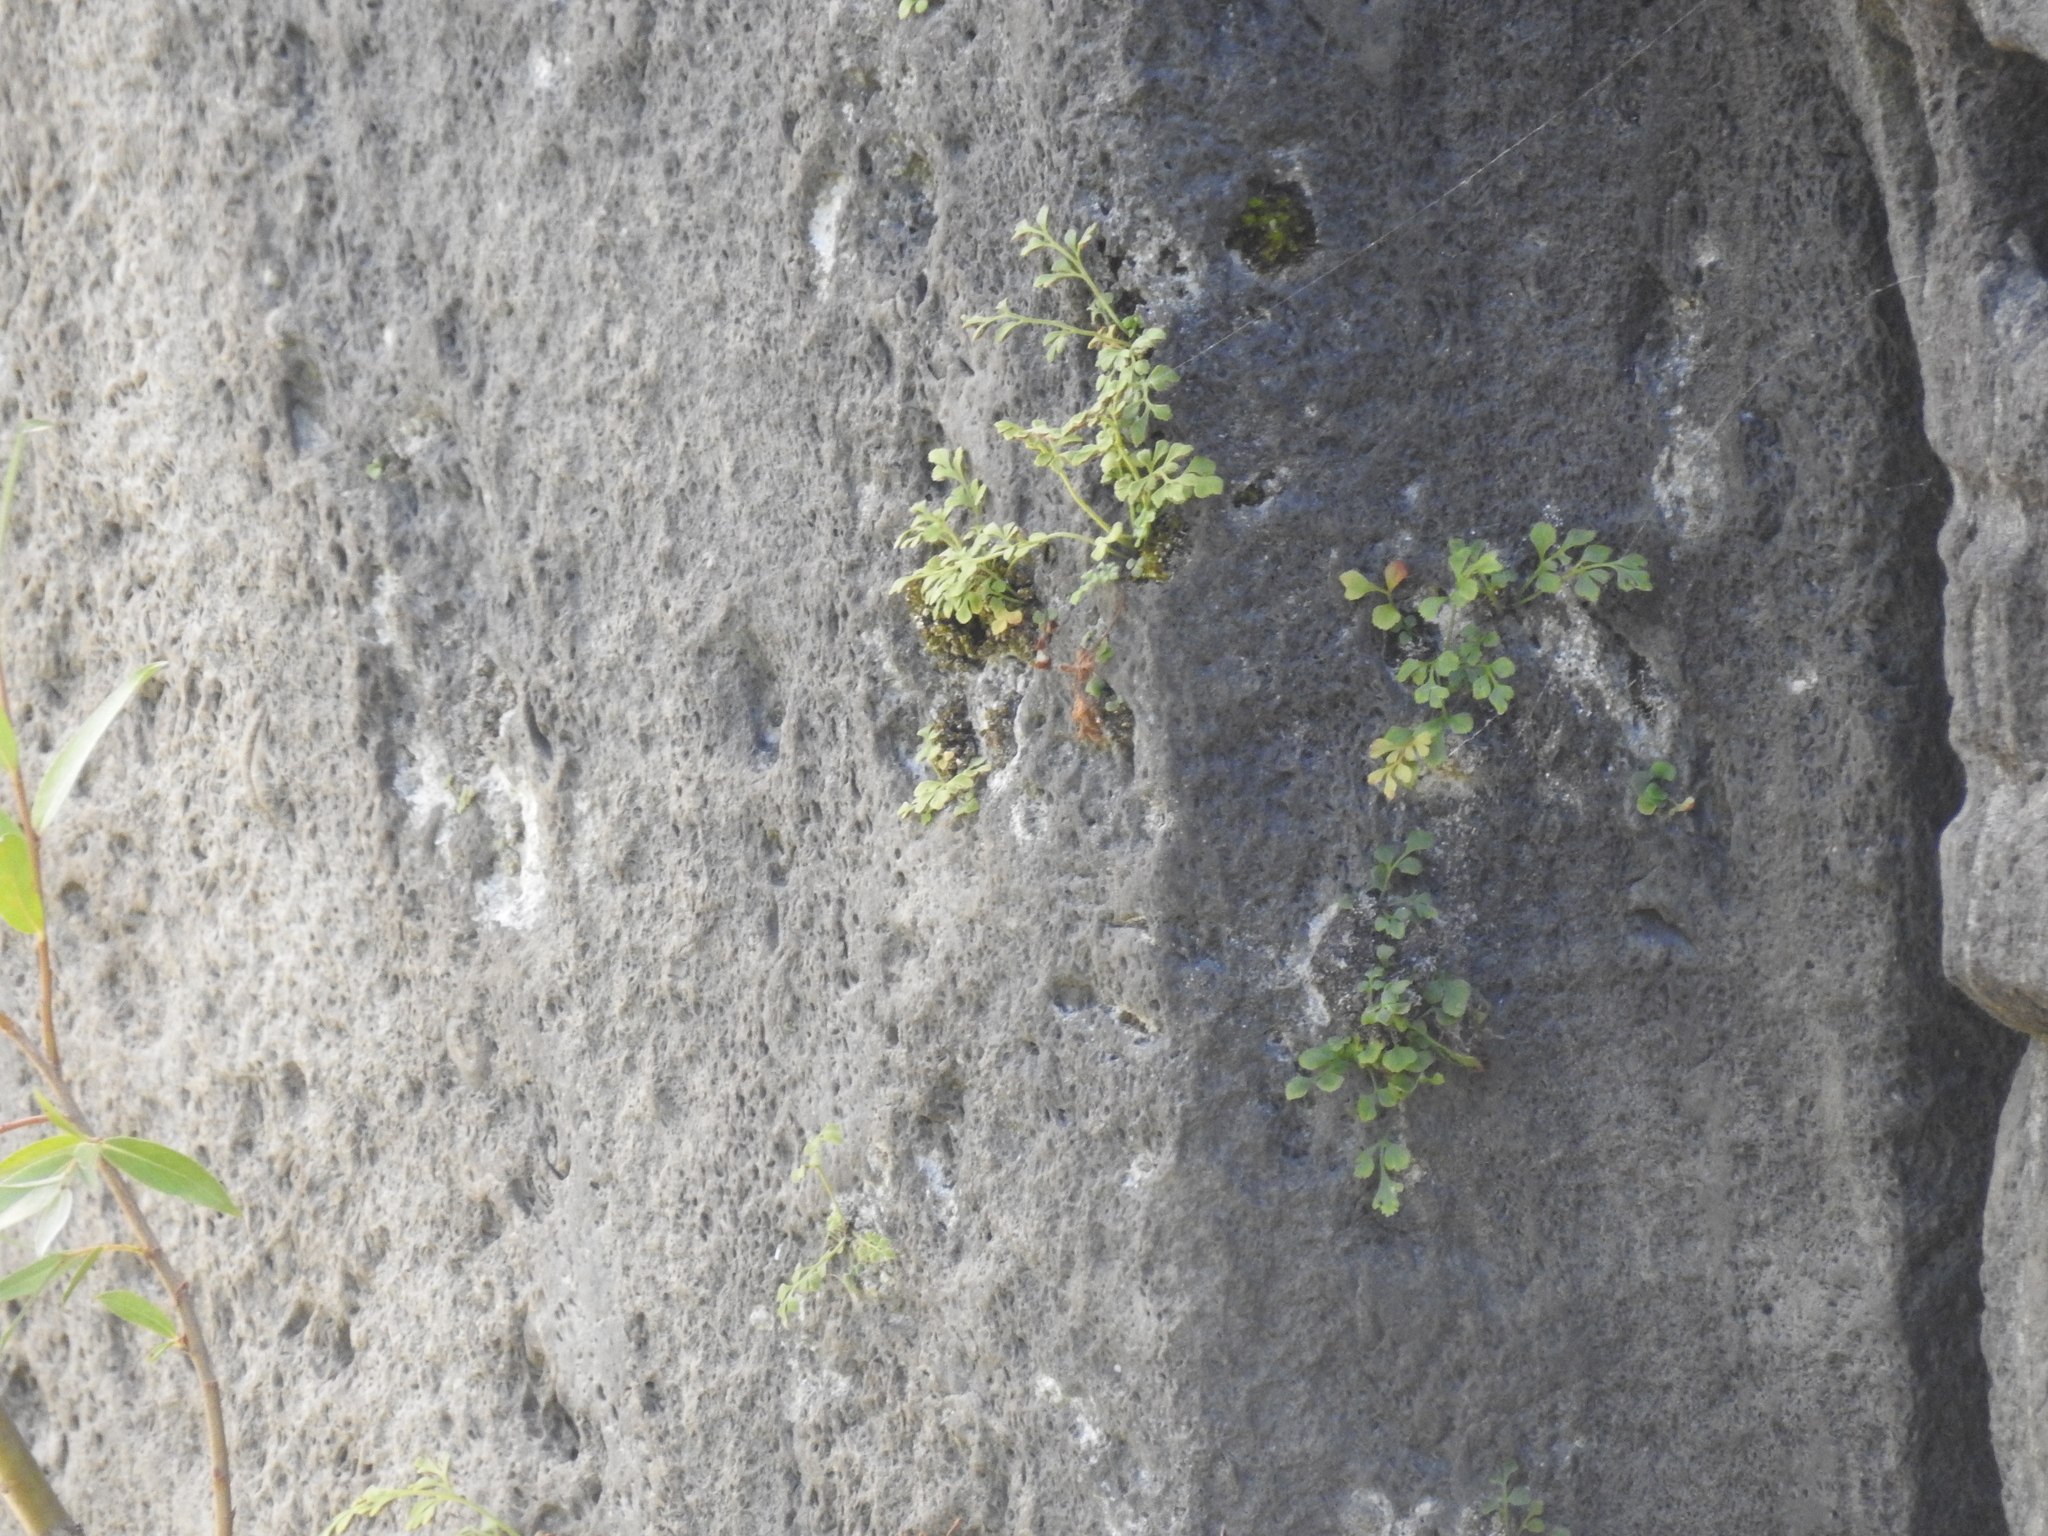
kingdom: Plantae
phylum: Tracheophyta
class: Polypodiopsida
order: Polypodiales
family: Aspleniaceae
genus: Asplenium
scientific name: Asplenium ruta-muraria
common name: Wall-rue
